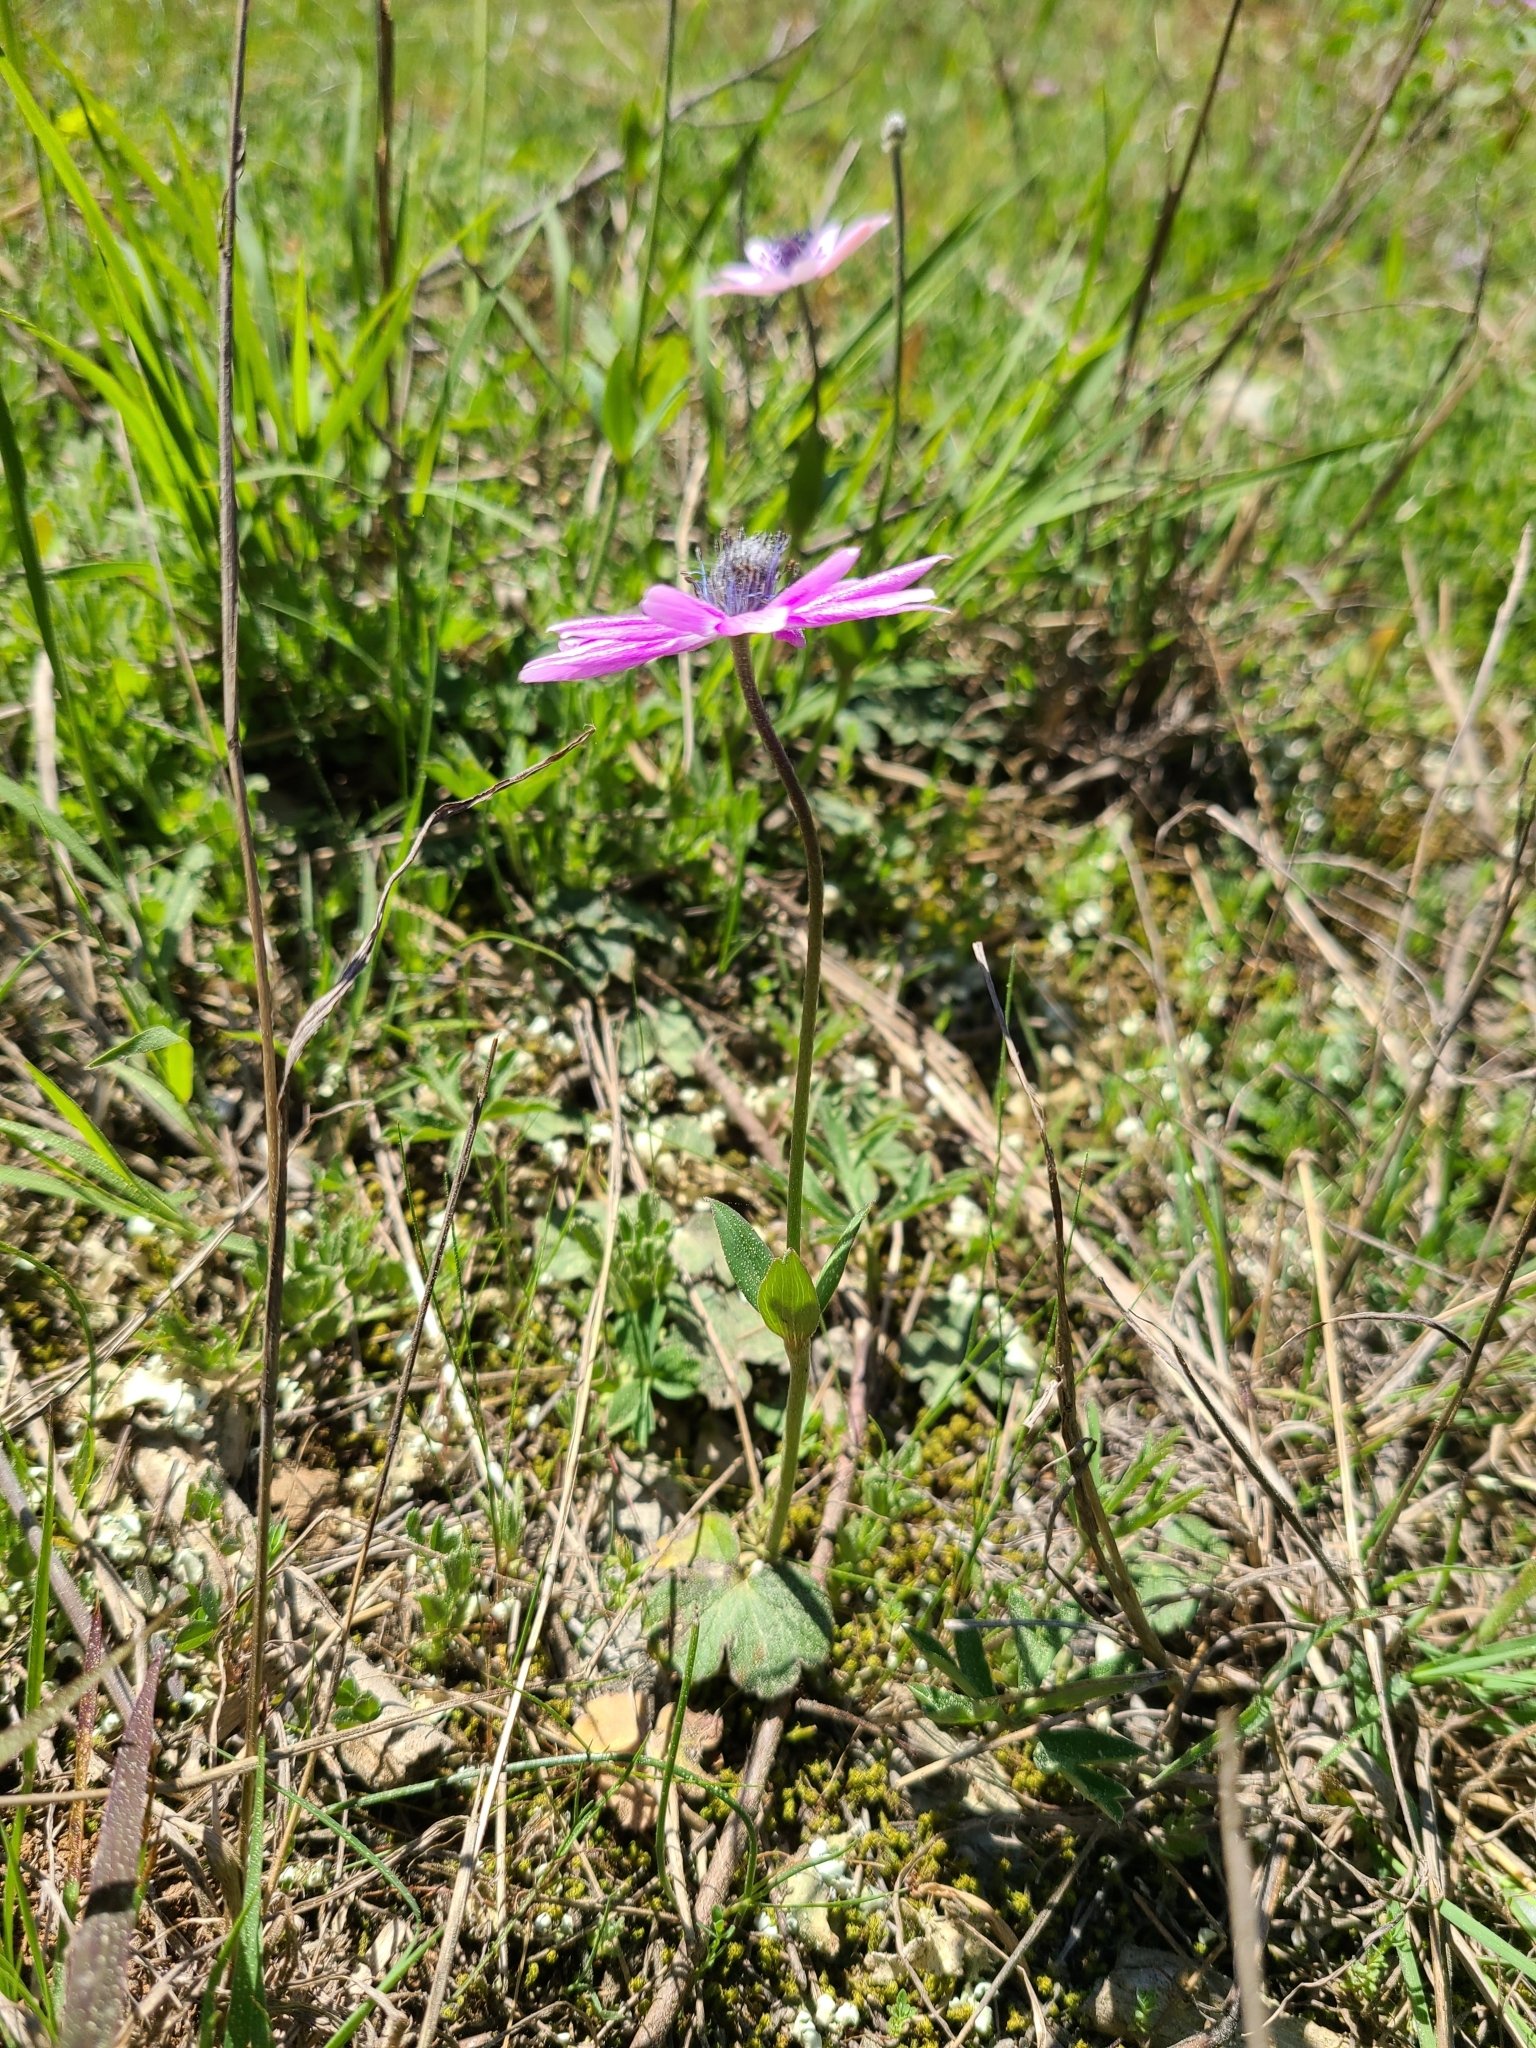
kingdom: Plantae
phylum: Tracheophyta
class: Magnoliopsida
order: Ranunculales
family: Ranunculaceae
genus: Anemone
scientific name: Anemone hortensis
